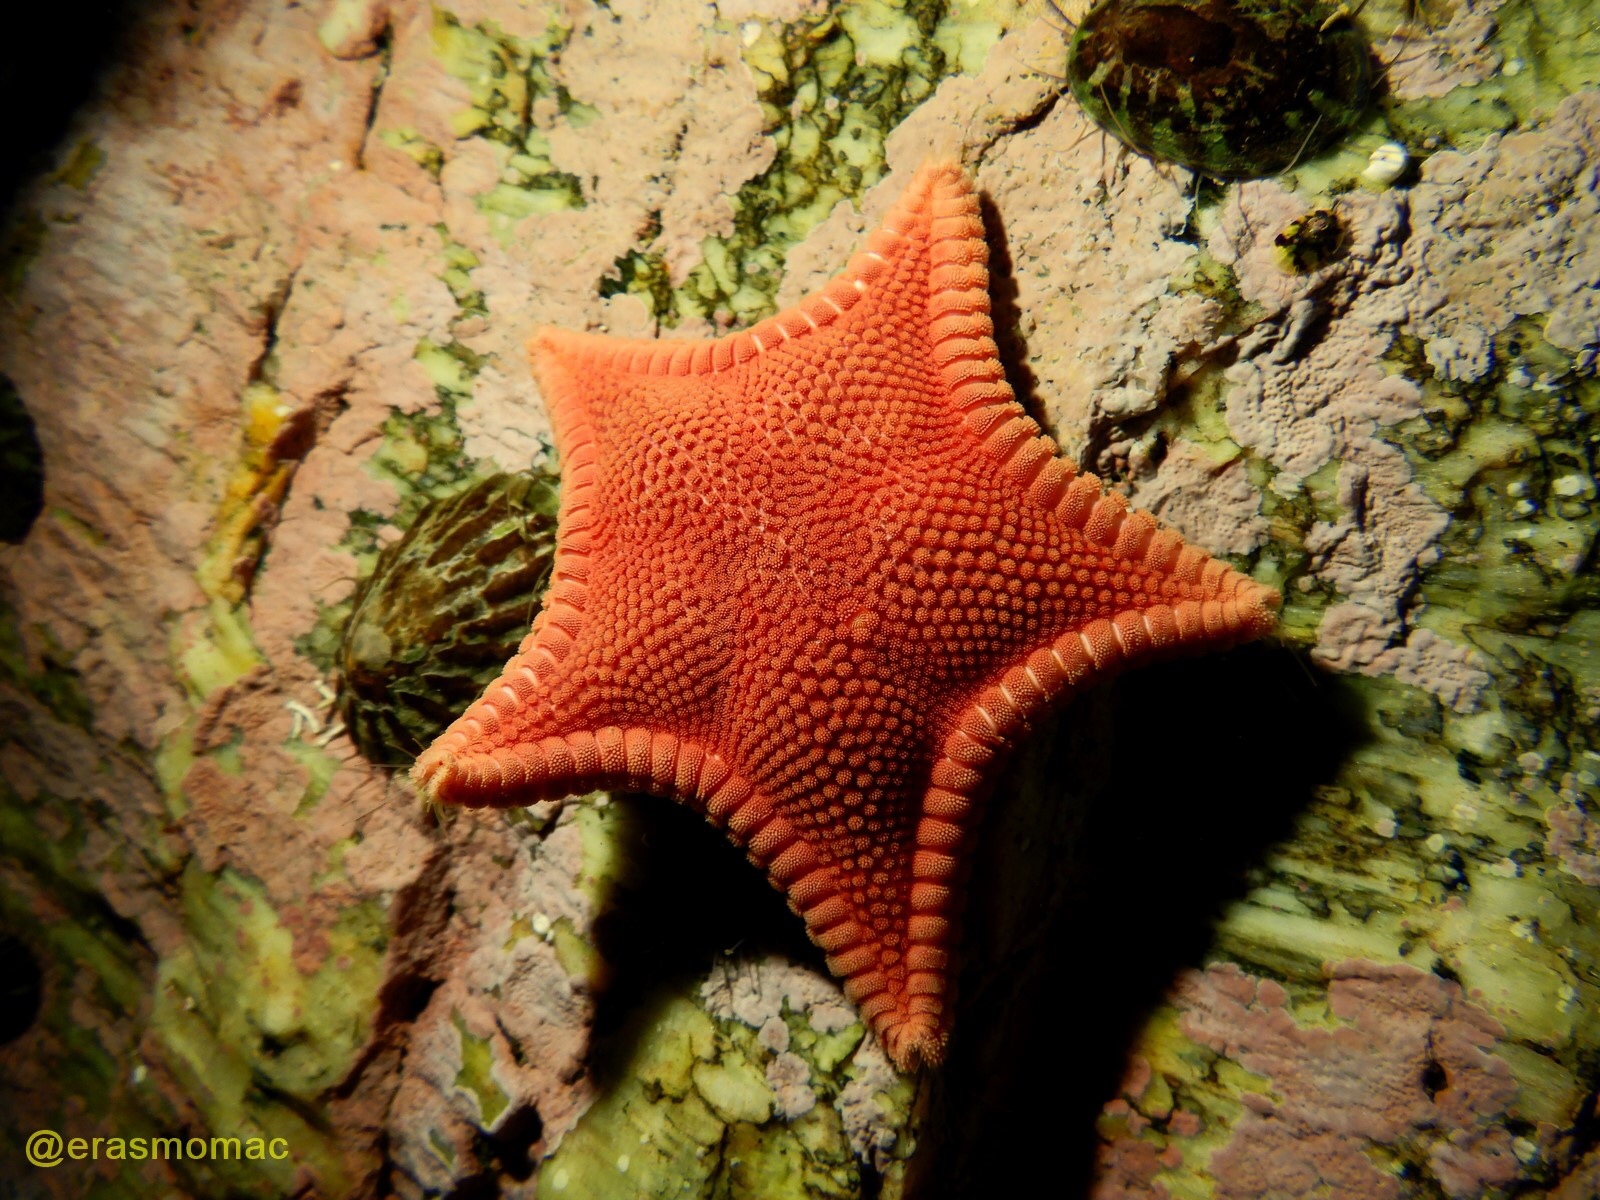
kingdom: Animalia
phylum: Echinodermata
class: Asteroidea
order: Valvatida
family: Odontasteridae
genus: Odontaster
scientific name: Odontaster penicillatus
